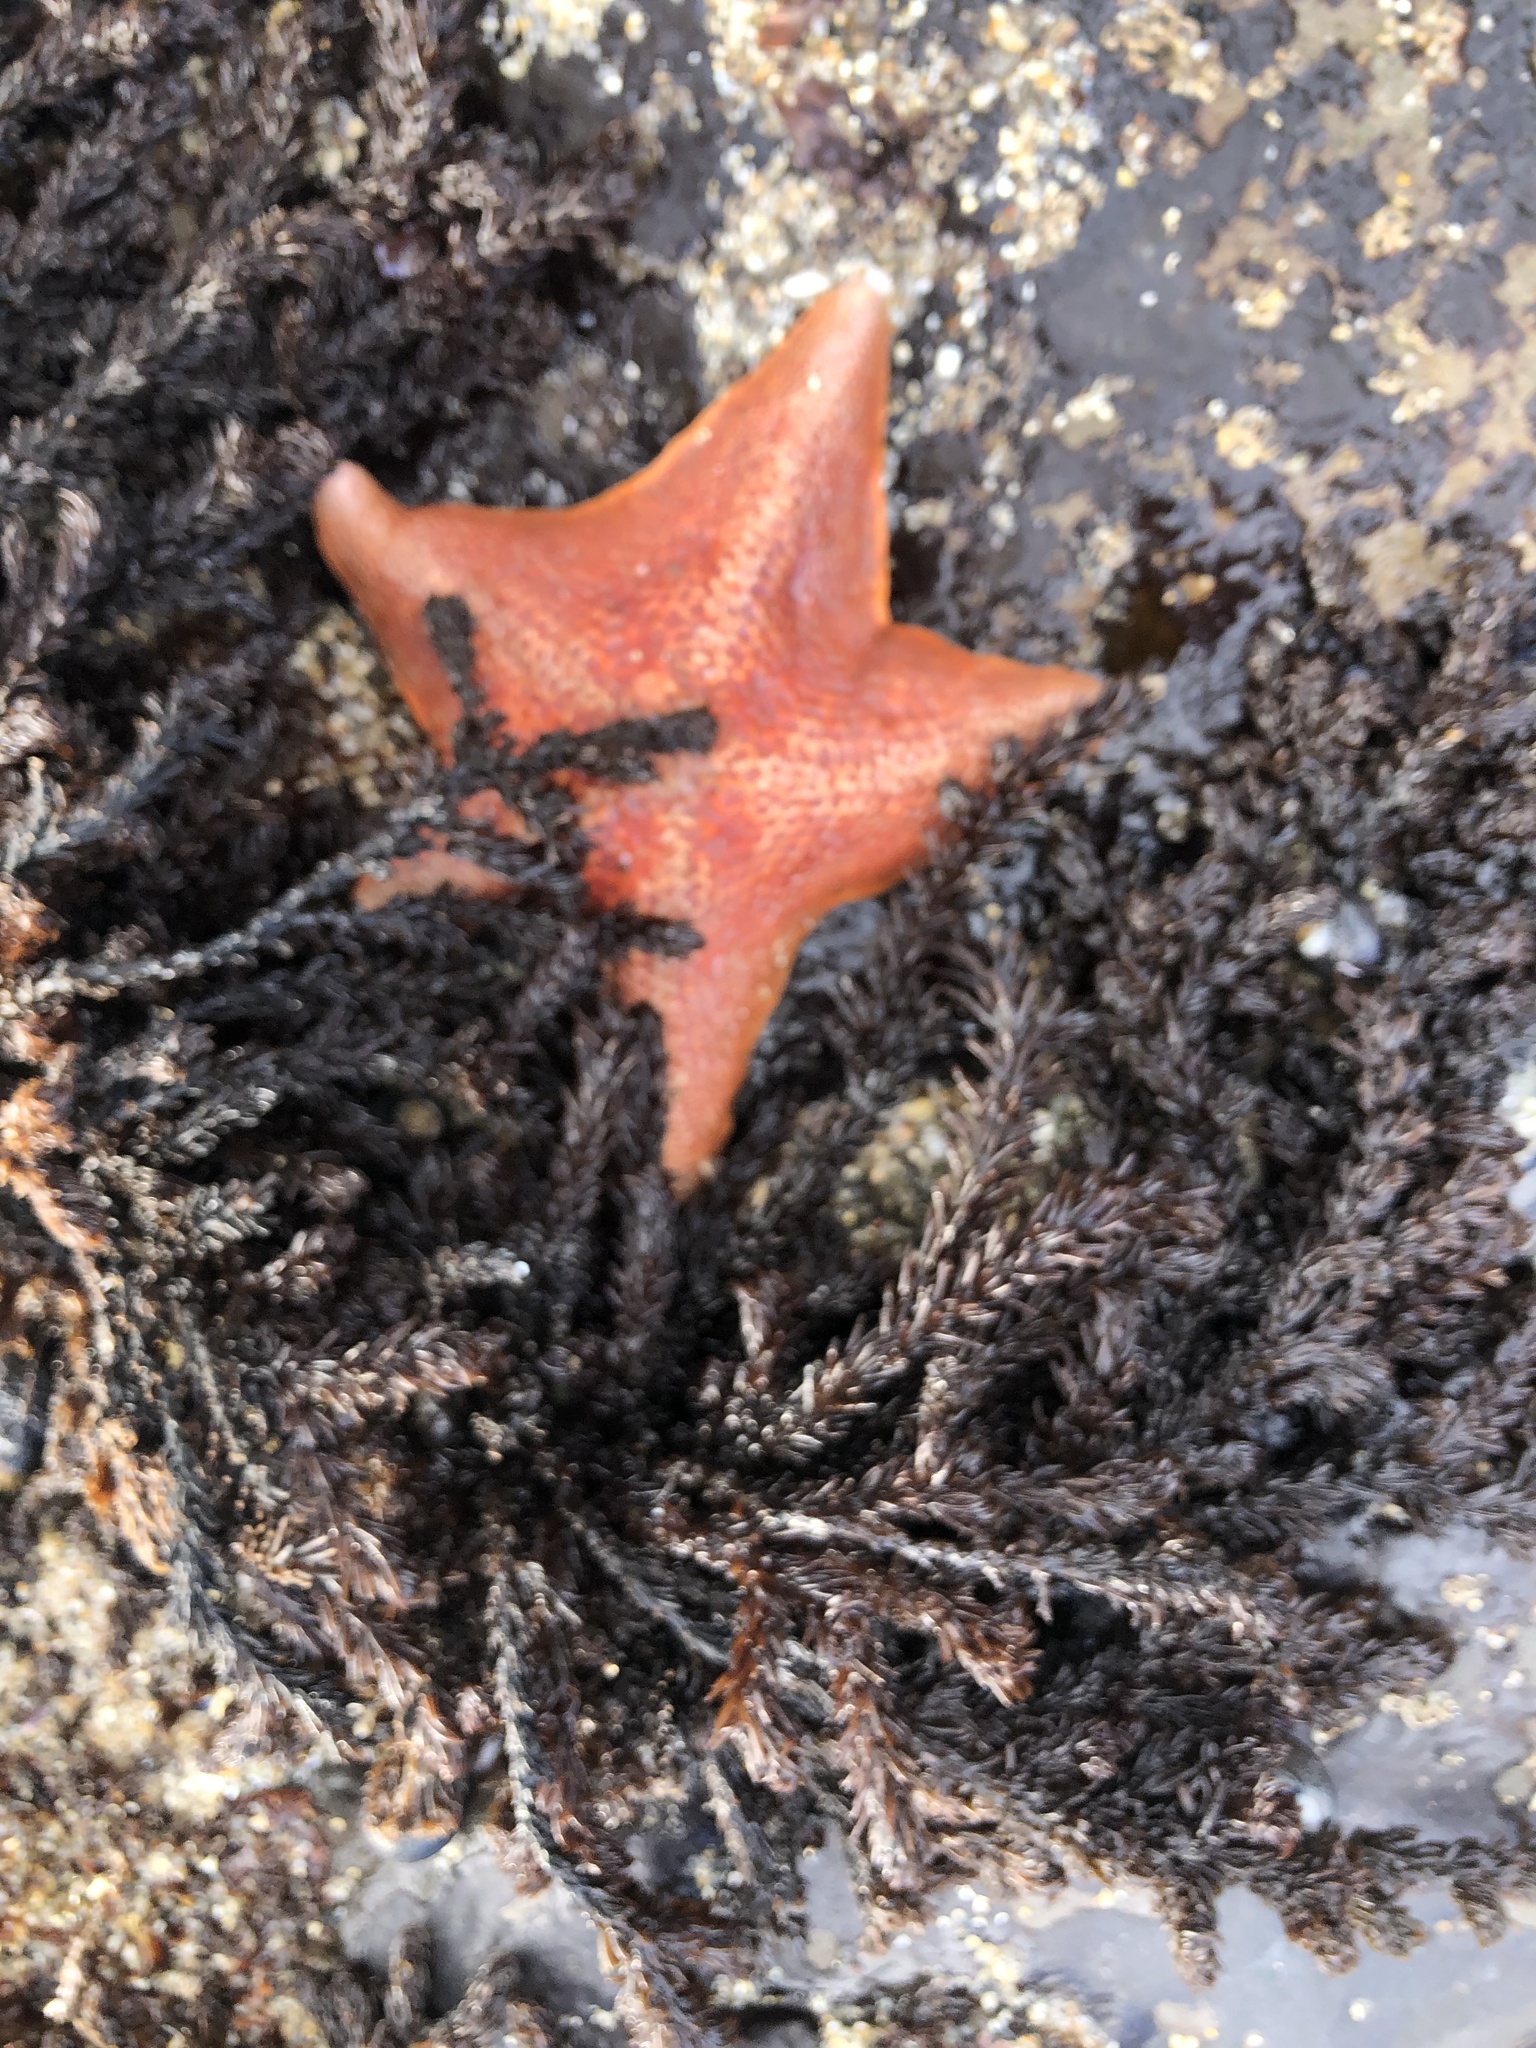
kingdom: Animalia
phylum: Echinodermata
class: Asteroidea
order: Valvatida
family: Asterinidae
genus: Patiria
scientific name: Patiria miniata
